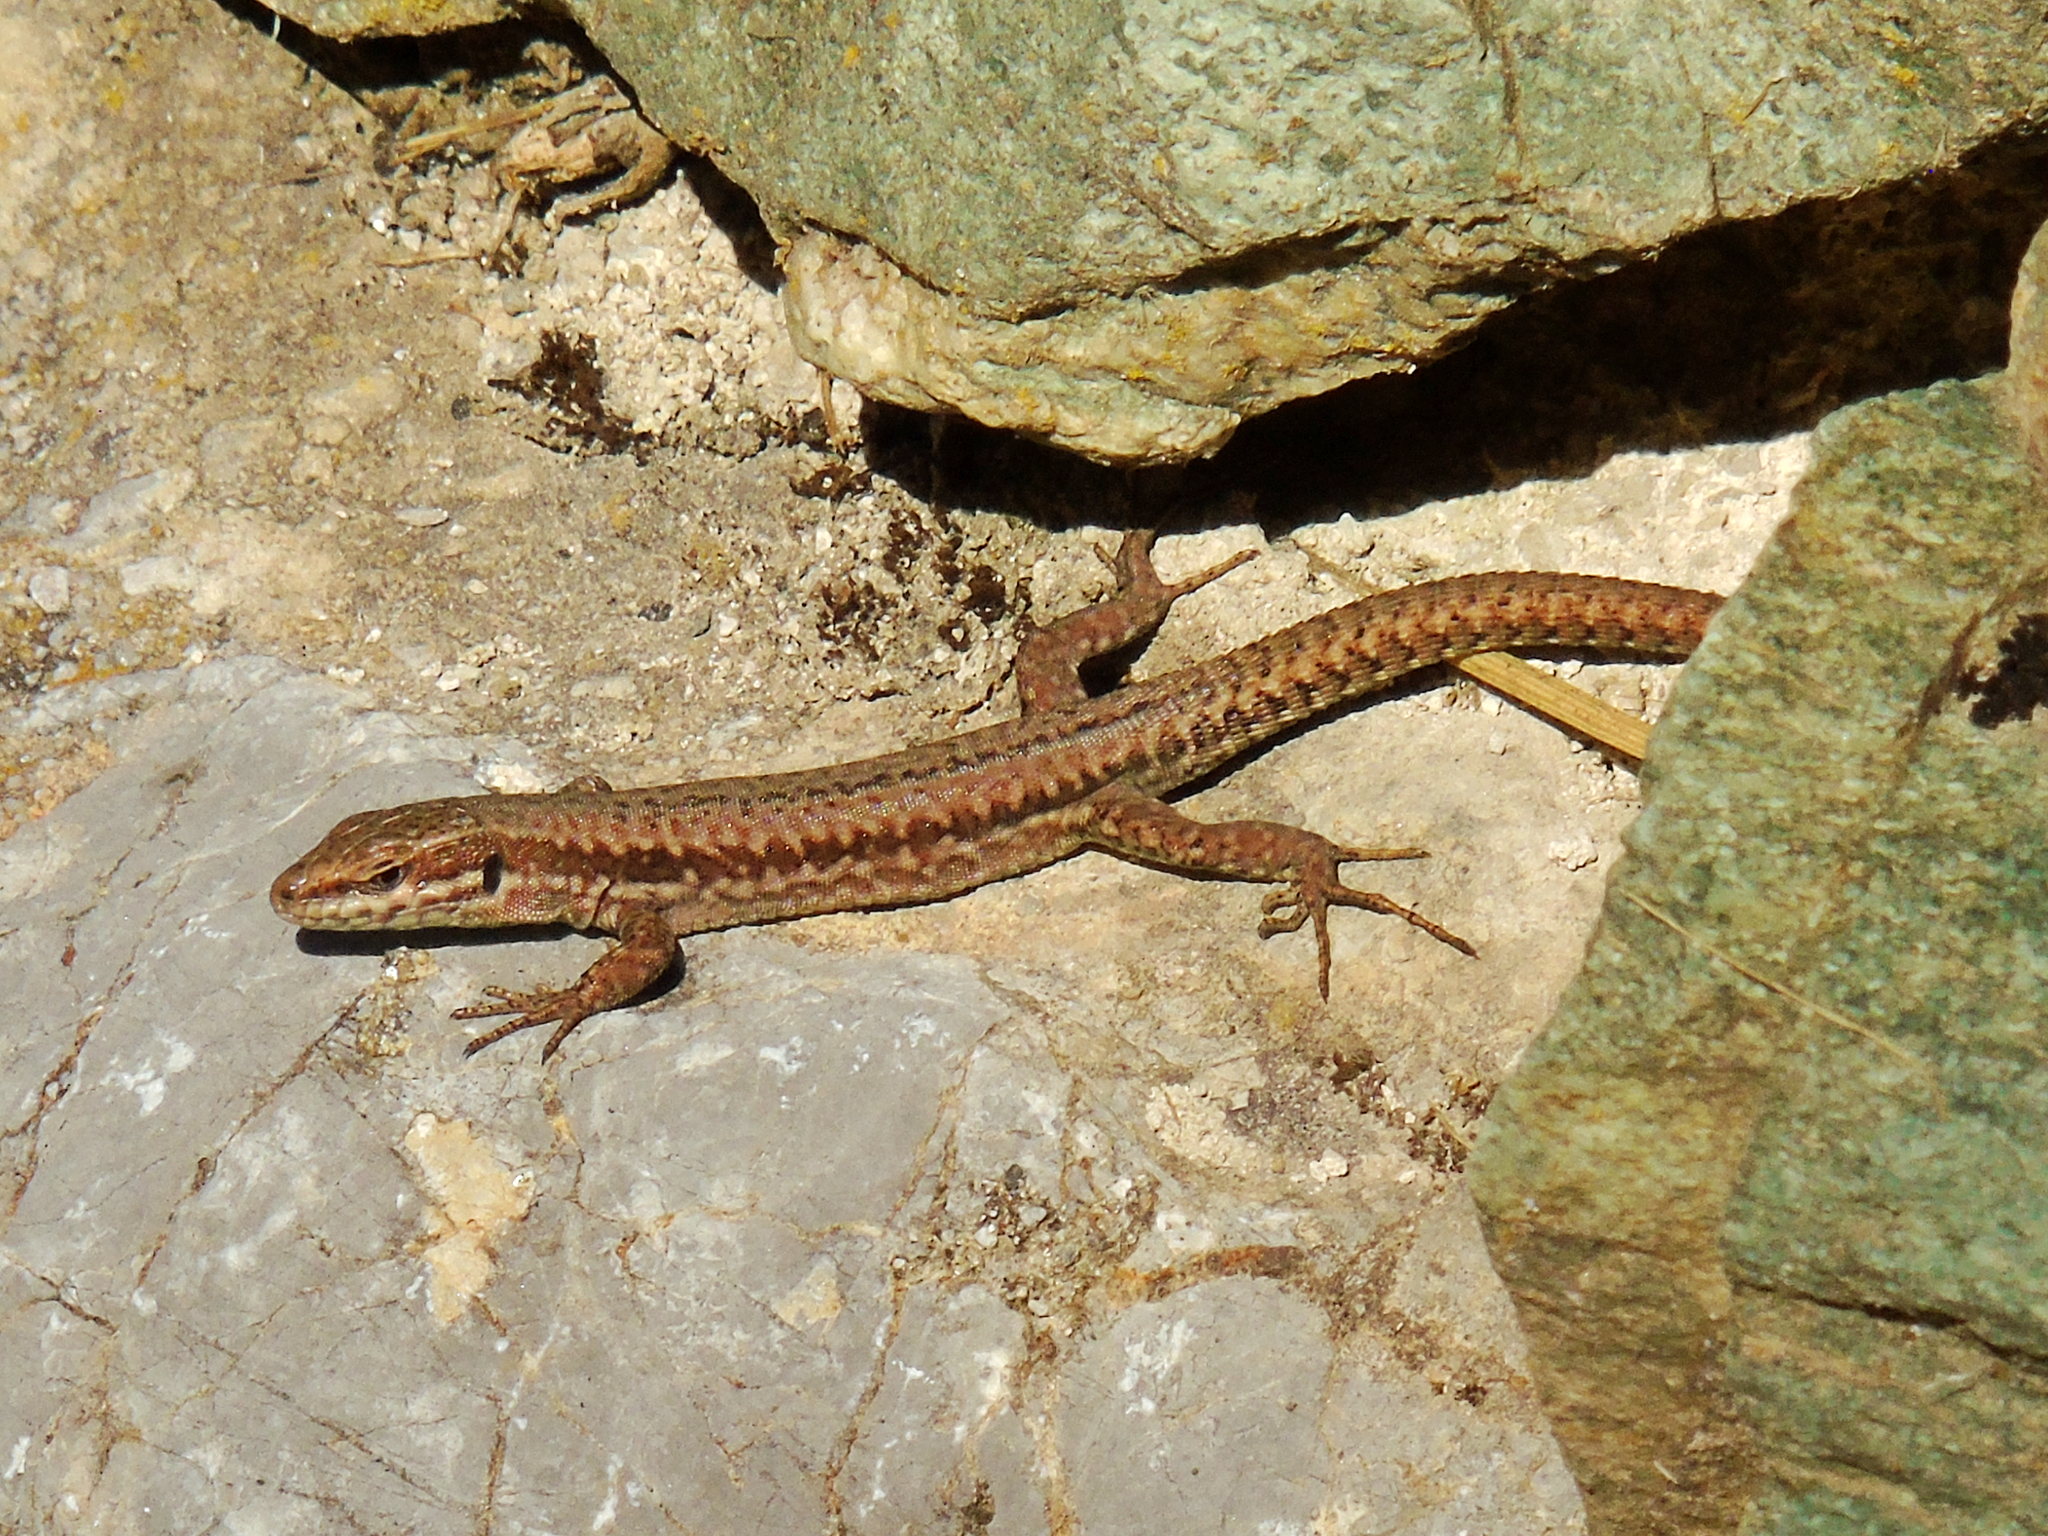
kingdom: Animalia
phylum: Chordata
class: Squamata
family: Lacertidae
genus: Podarcis
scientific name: Podarcis muralis
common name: Common wall lizard
